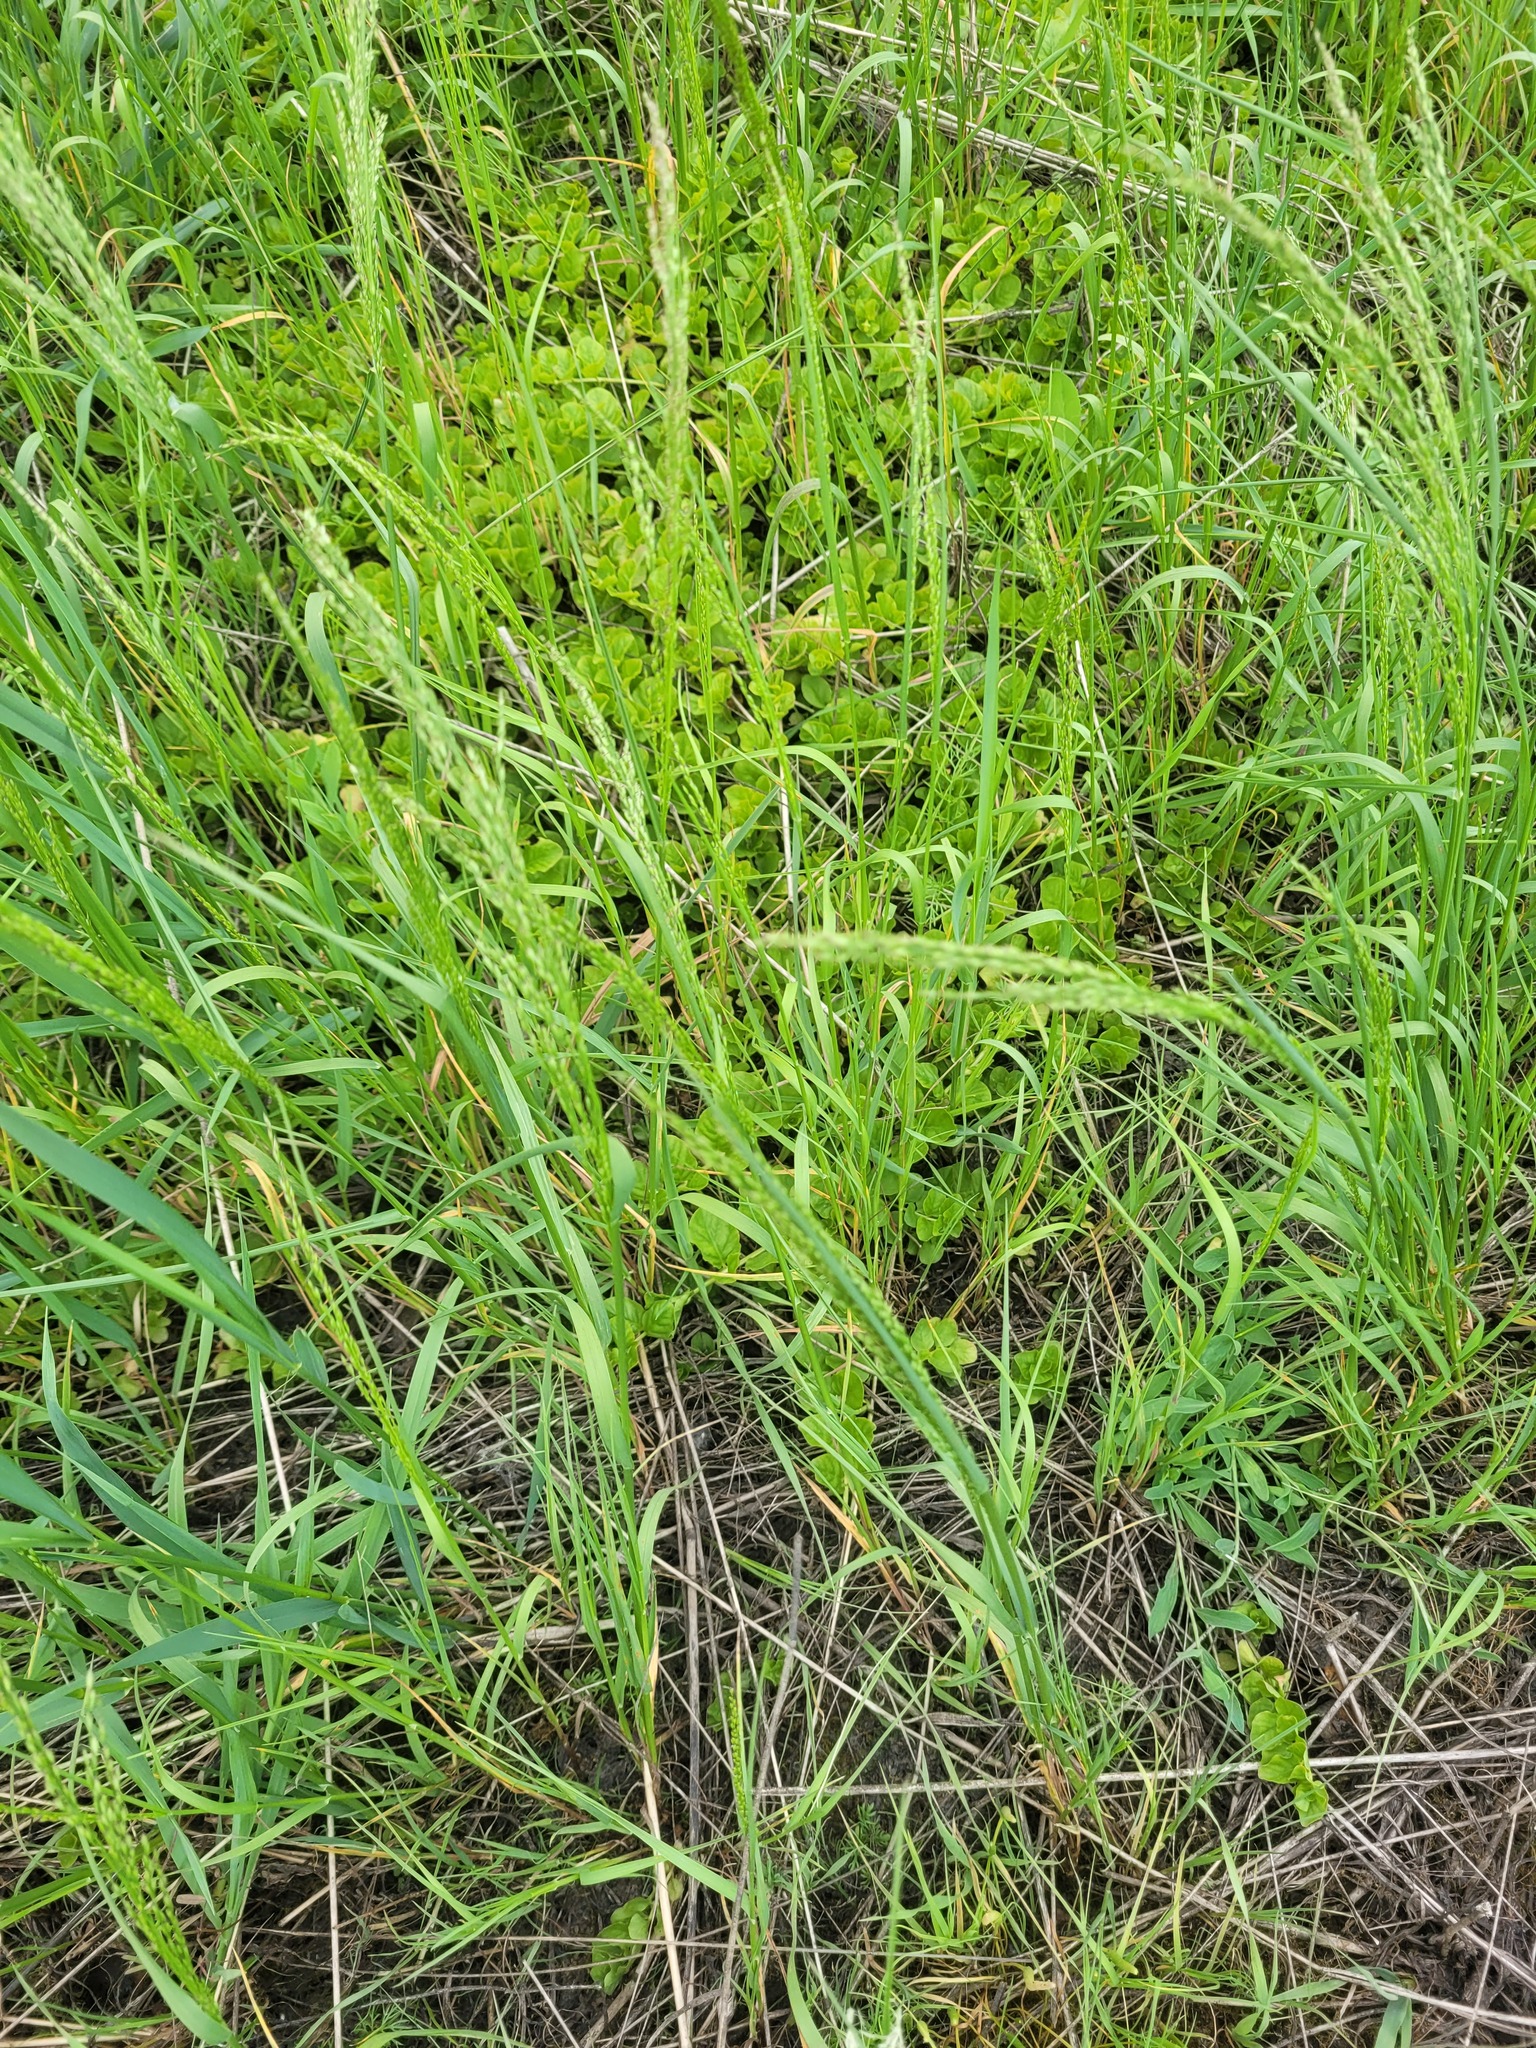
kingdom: Plantae
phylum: Tracheophyta
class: Liliopsida
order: Poales
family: Poaceae
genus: Poa
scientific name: Poa palustris
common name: Swamp meadow-grass
